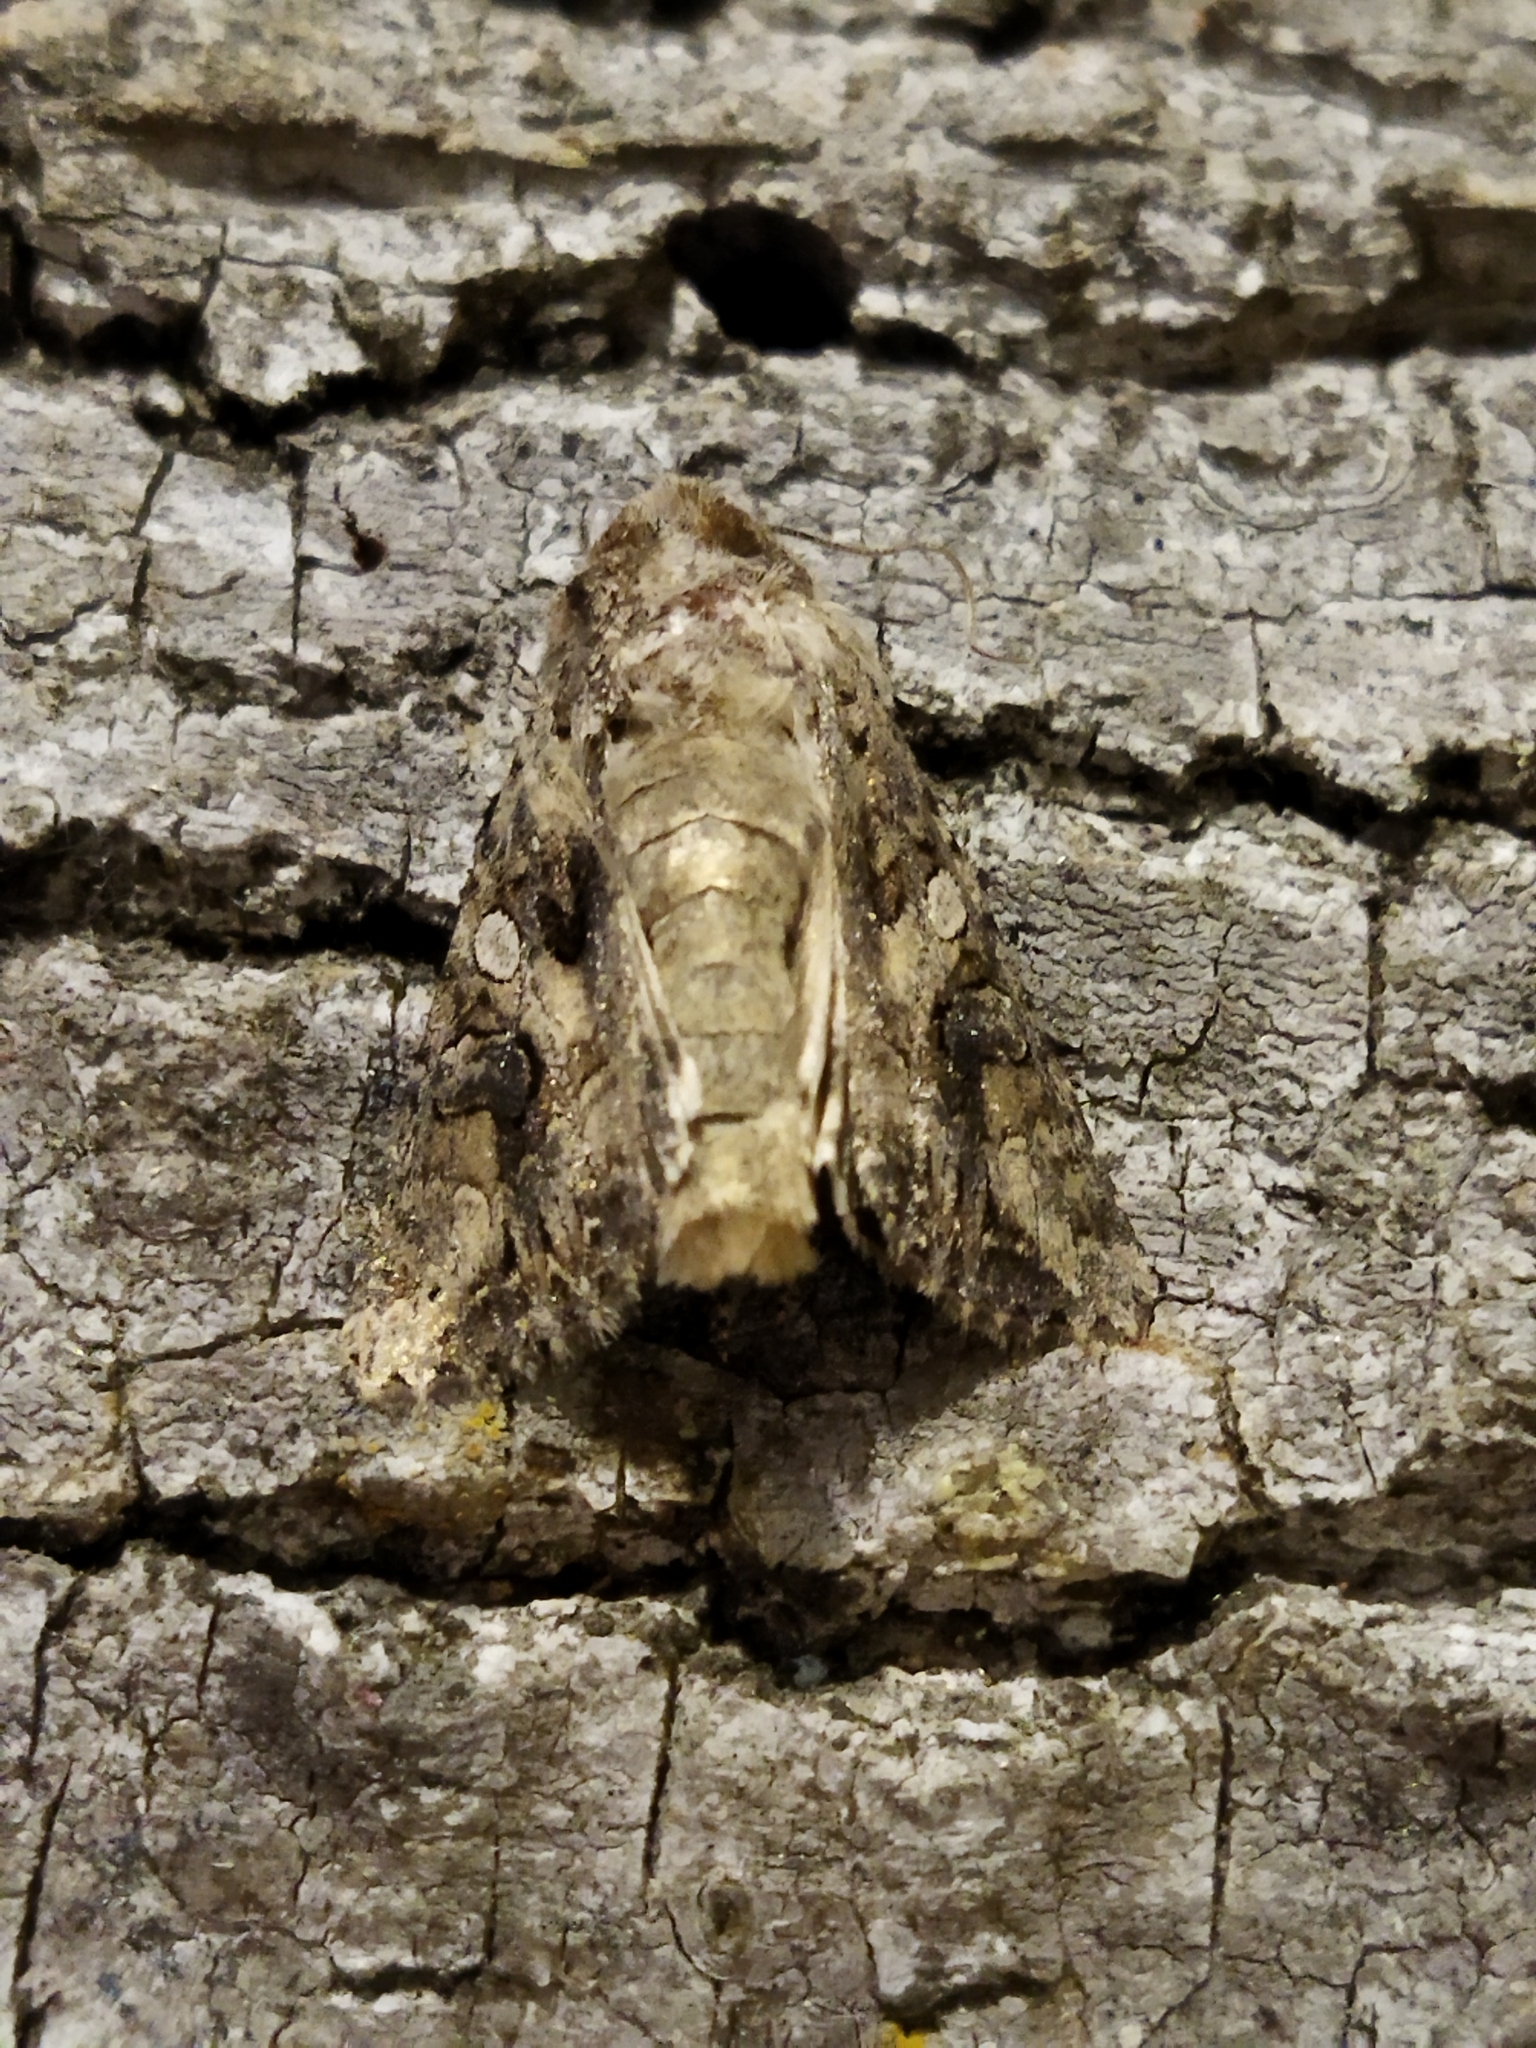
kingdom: Animalia
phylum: Arthropoda
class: Insecta
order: Lepidoptera
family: Noctuidae
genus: Anarta
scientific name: Anarta trifolii
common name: Clover cutworm moth
